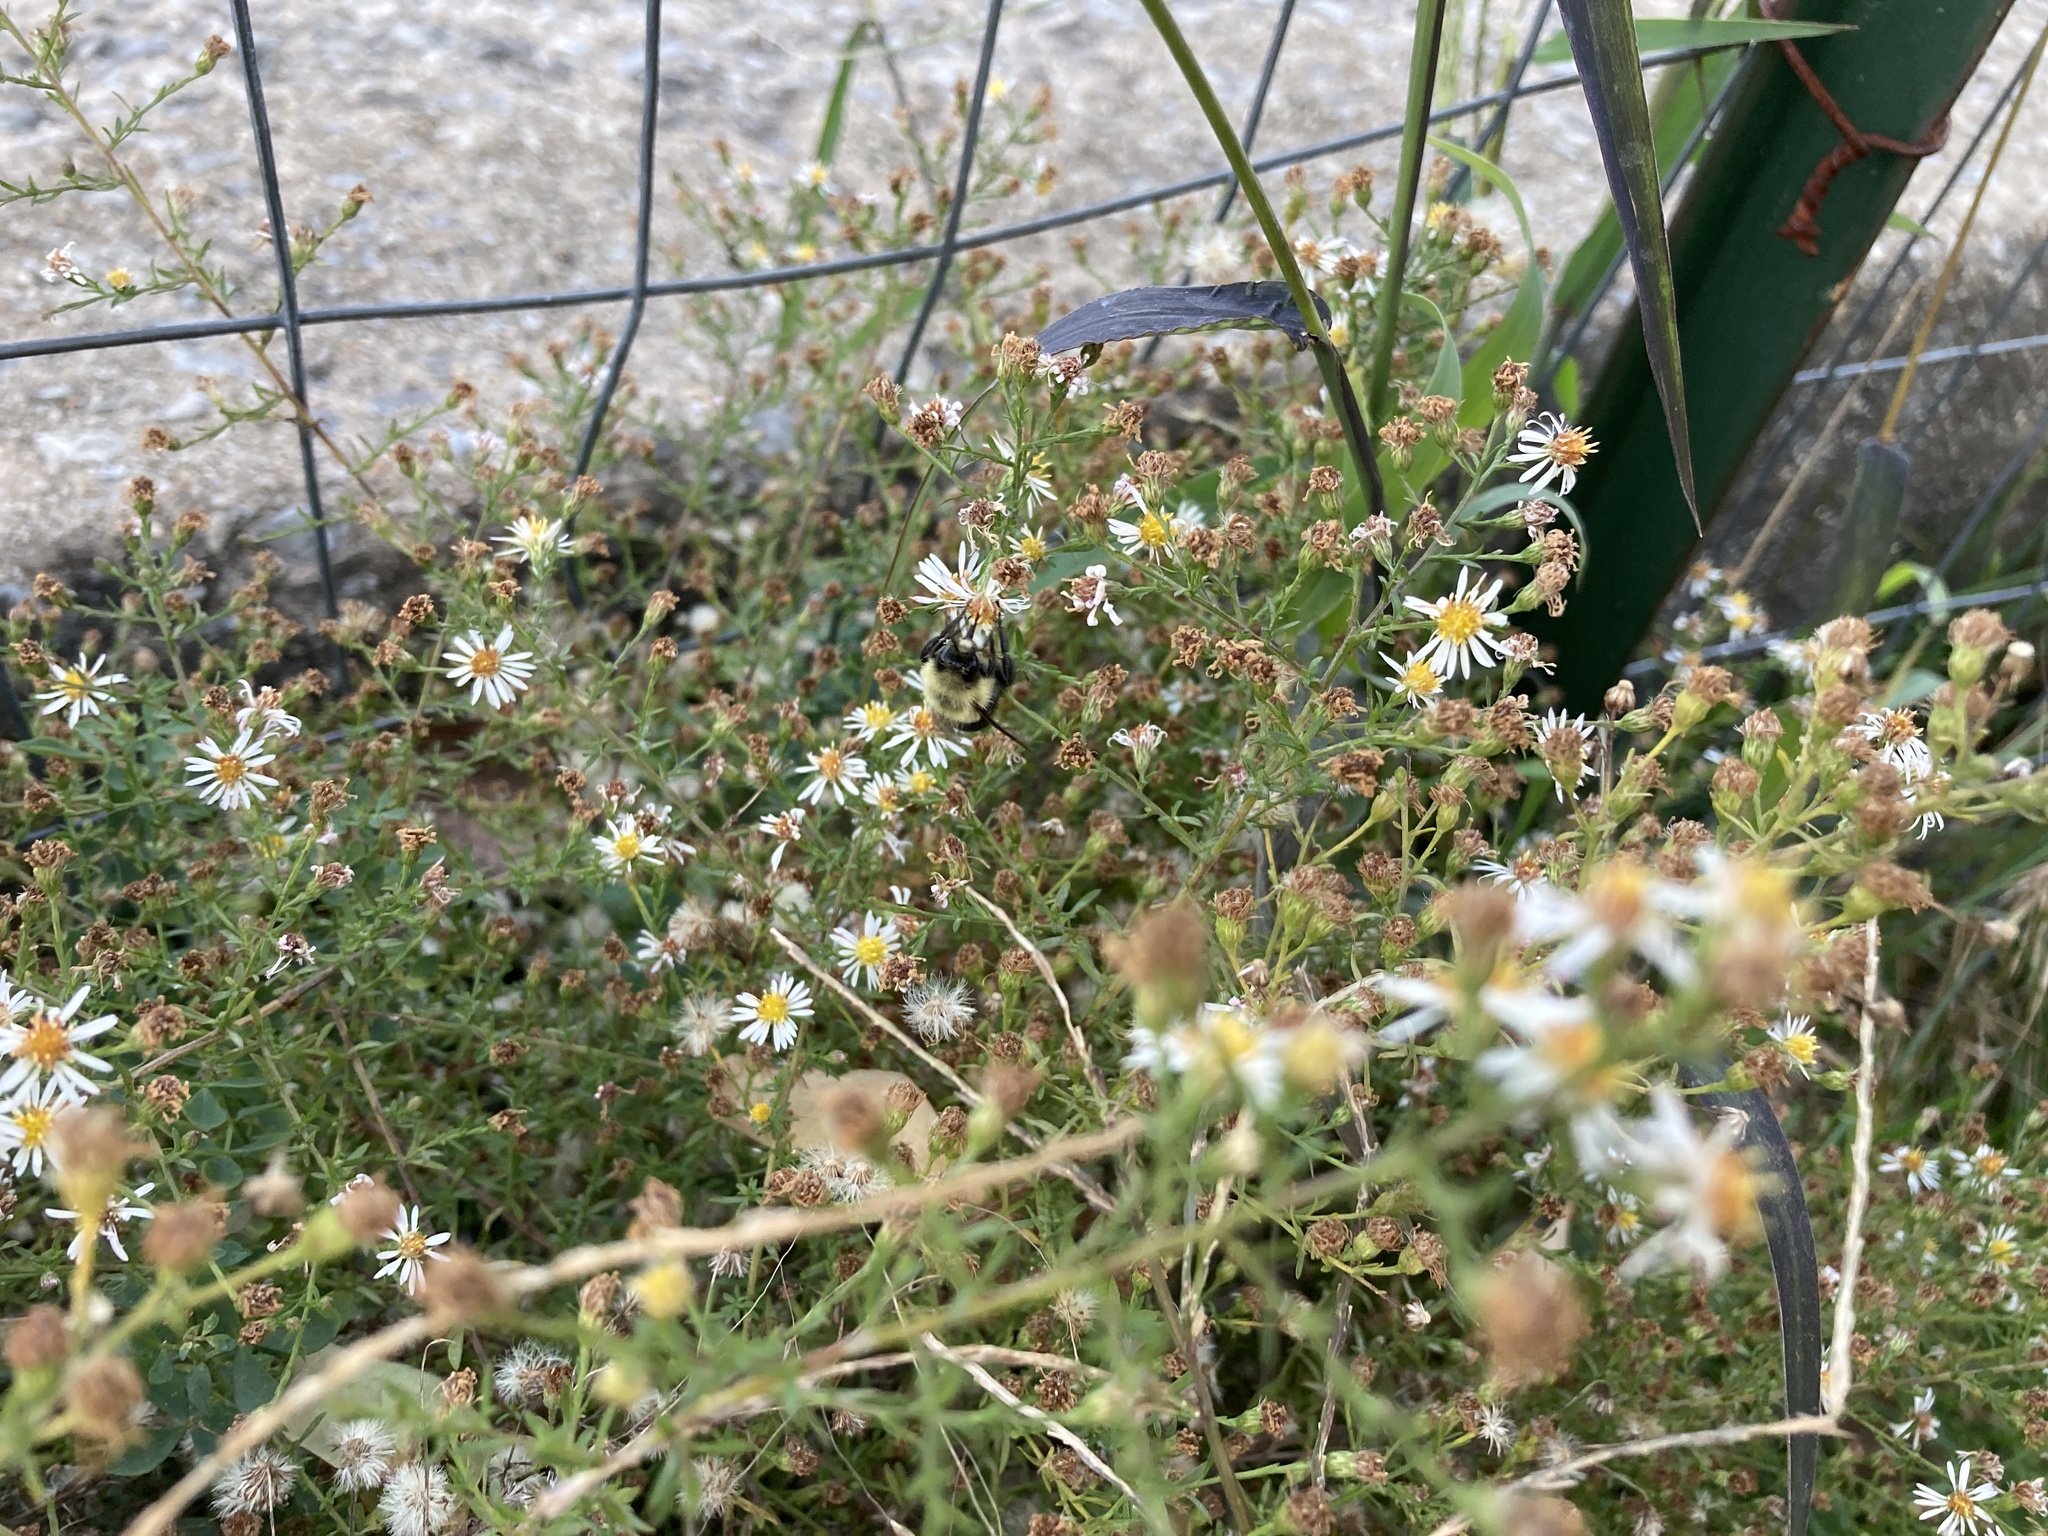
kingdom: Animalia
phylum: Arthropoda
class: Insecta
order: Hymenoptera
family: Apidae
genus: Bombus
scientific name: Bombus impatiens
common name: Common eastern bumble bee
